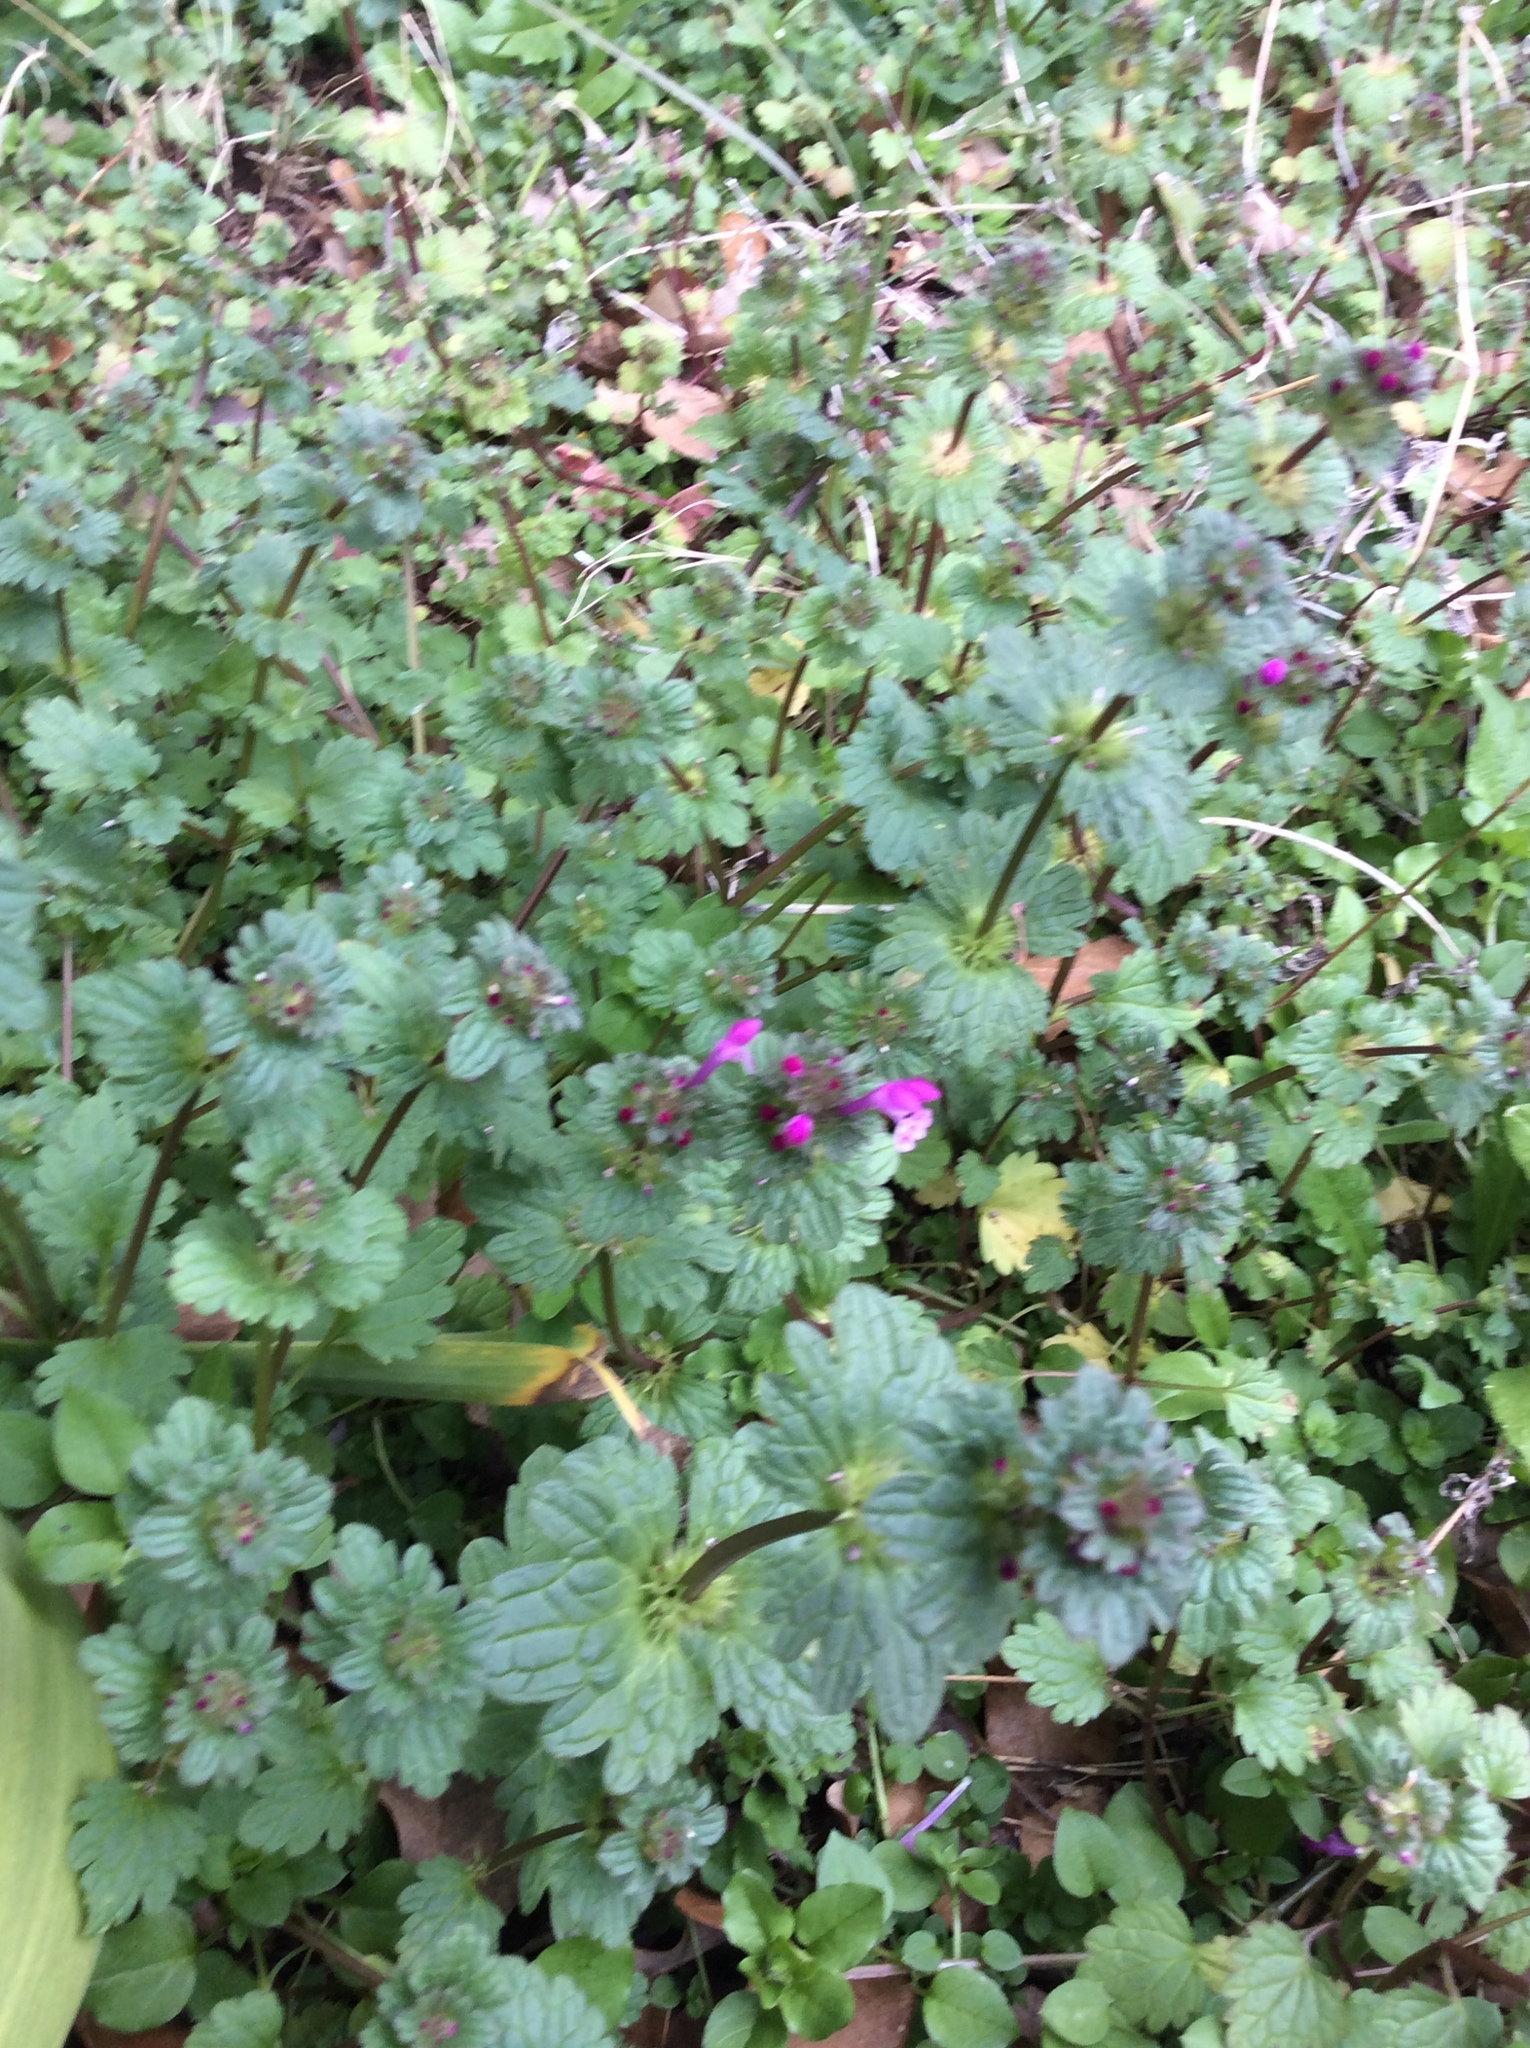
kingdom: Plantae
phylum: Tracheophyta
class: Magnoliopsida
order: Lamiales
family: Lamiaceae
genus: Lamium
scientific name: Lamium amplexicaule
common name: Henbit dead-nettle
